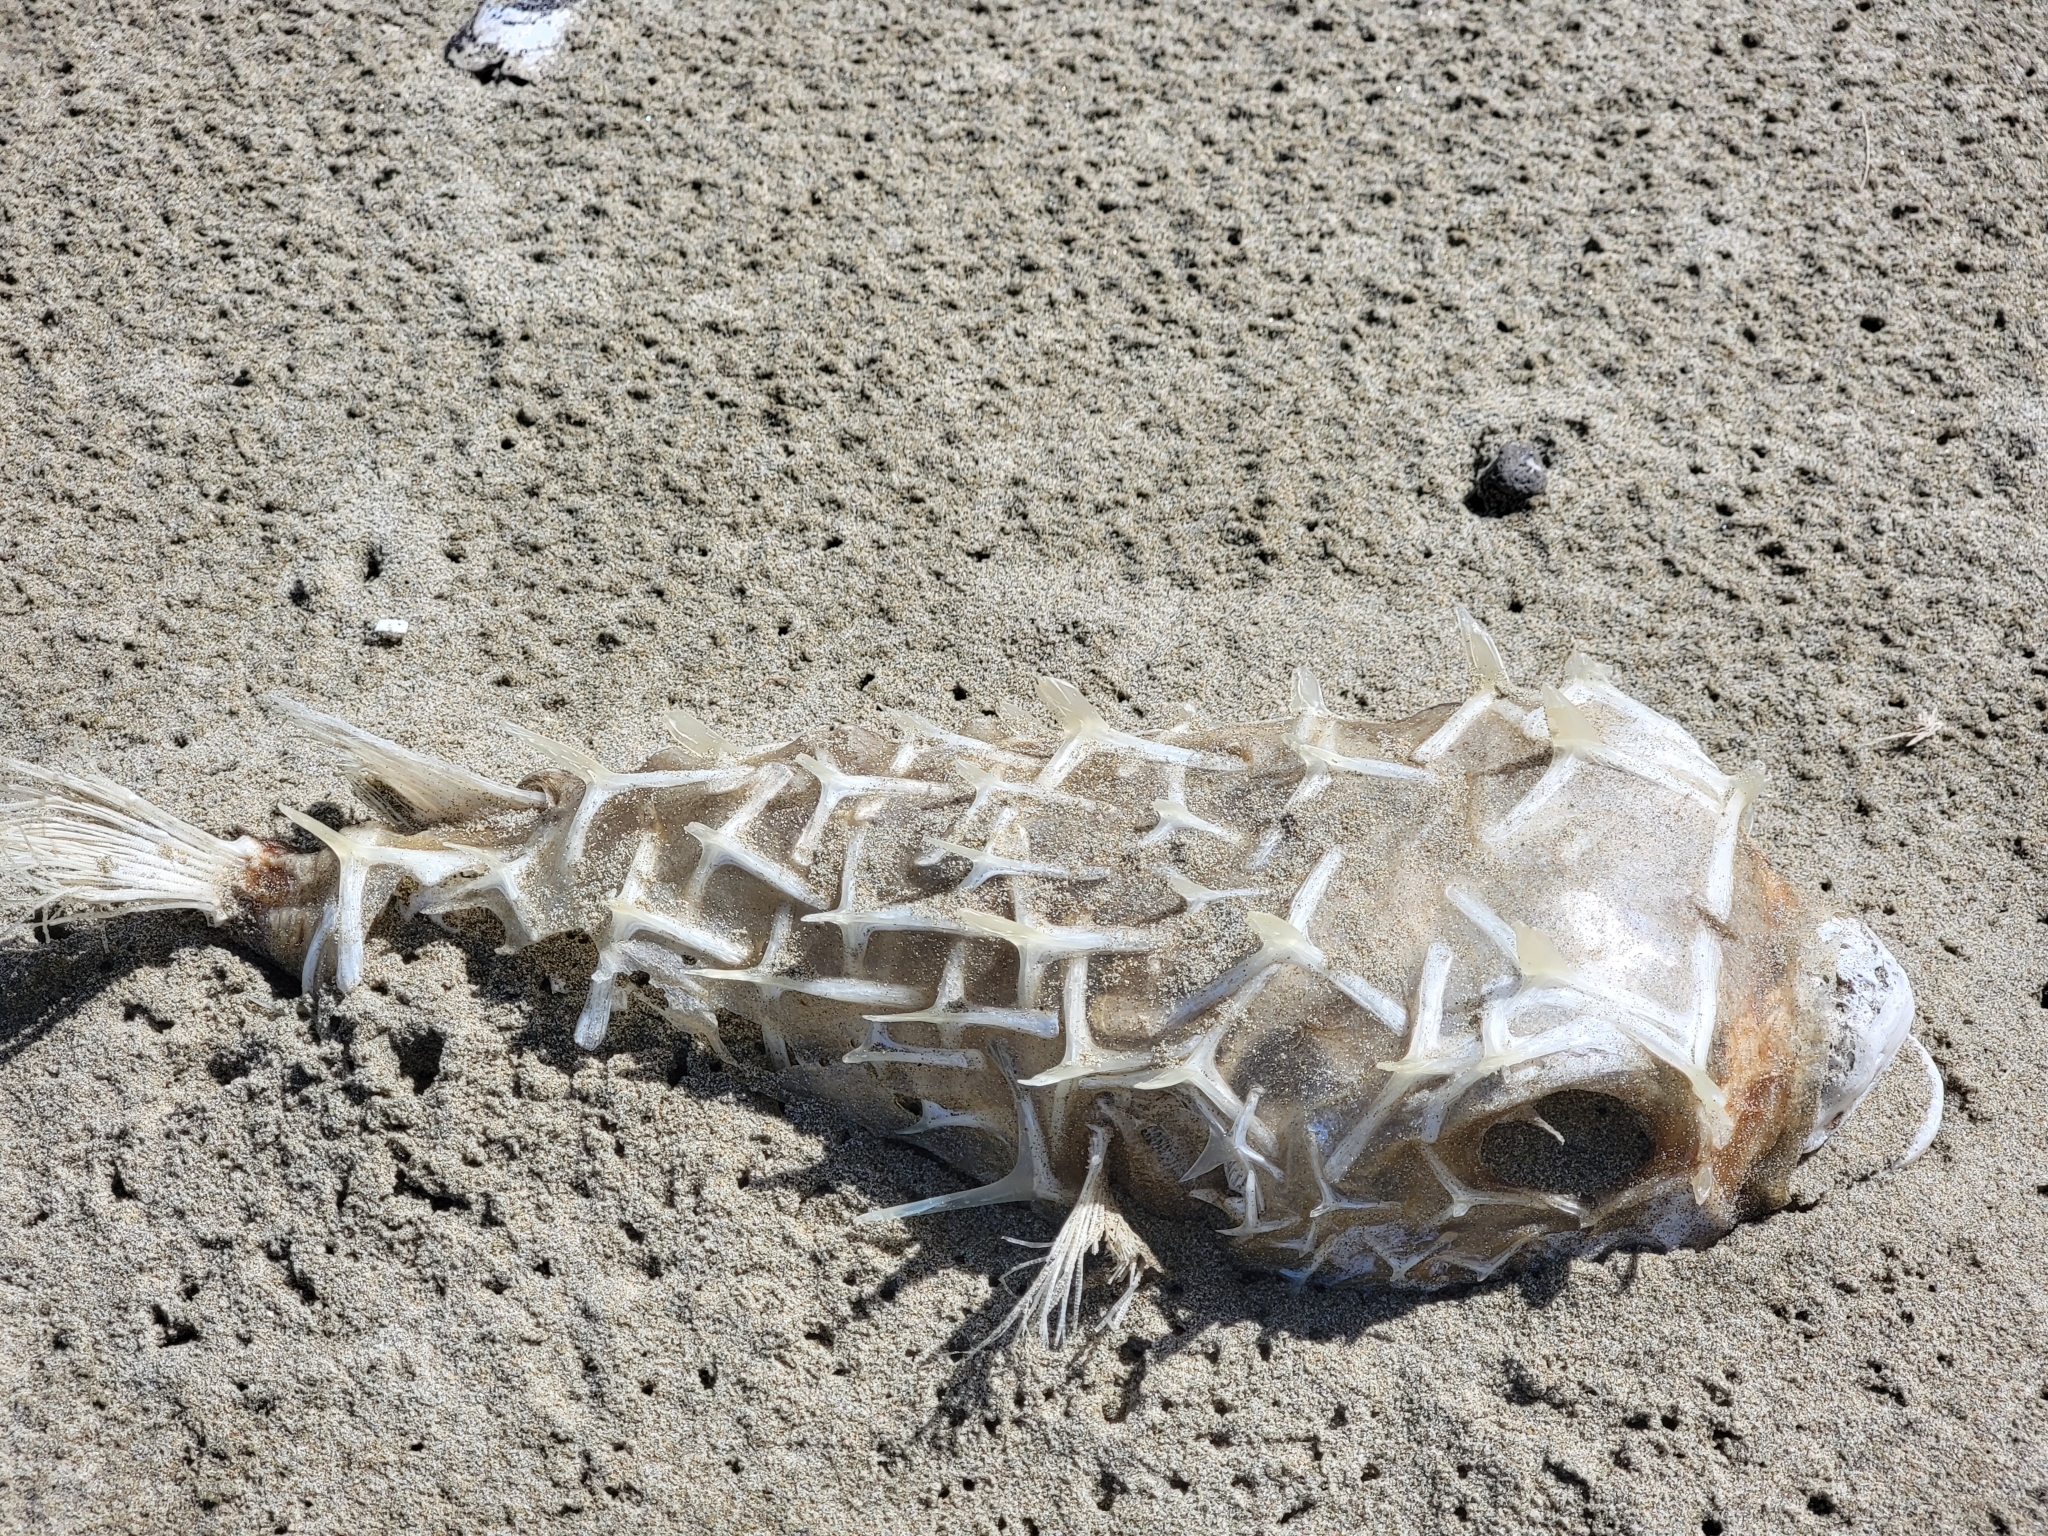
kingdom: Animalia
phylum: Chordata
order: Tetraodontiformes
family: Diodontidae
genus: Allomycterus
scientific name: Allomycterus pilatus
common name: No common name
